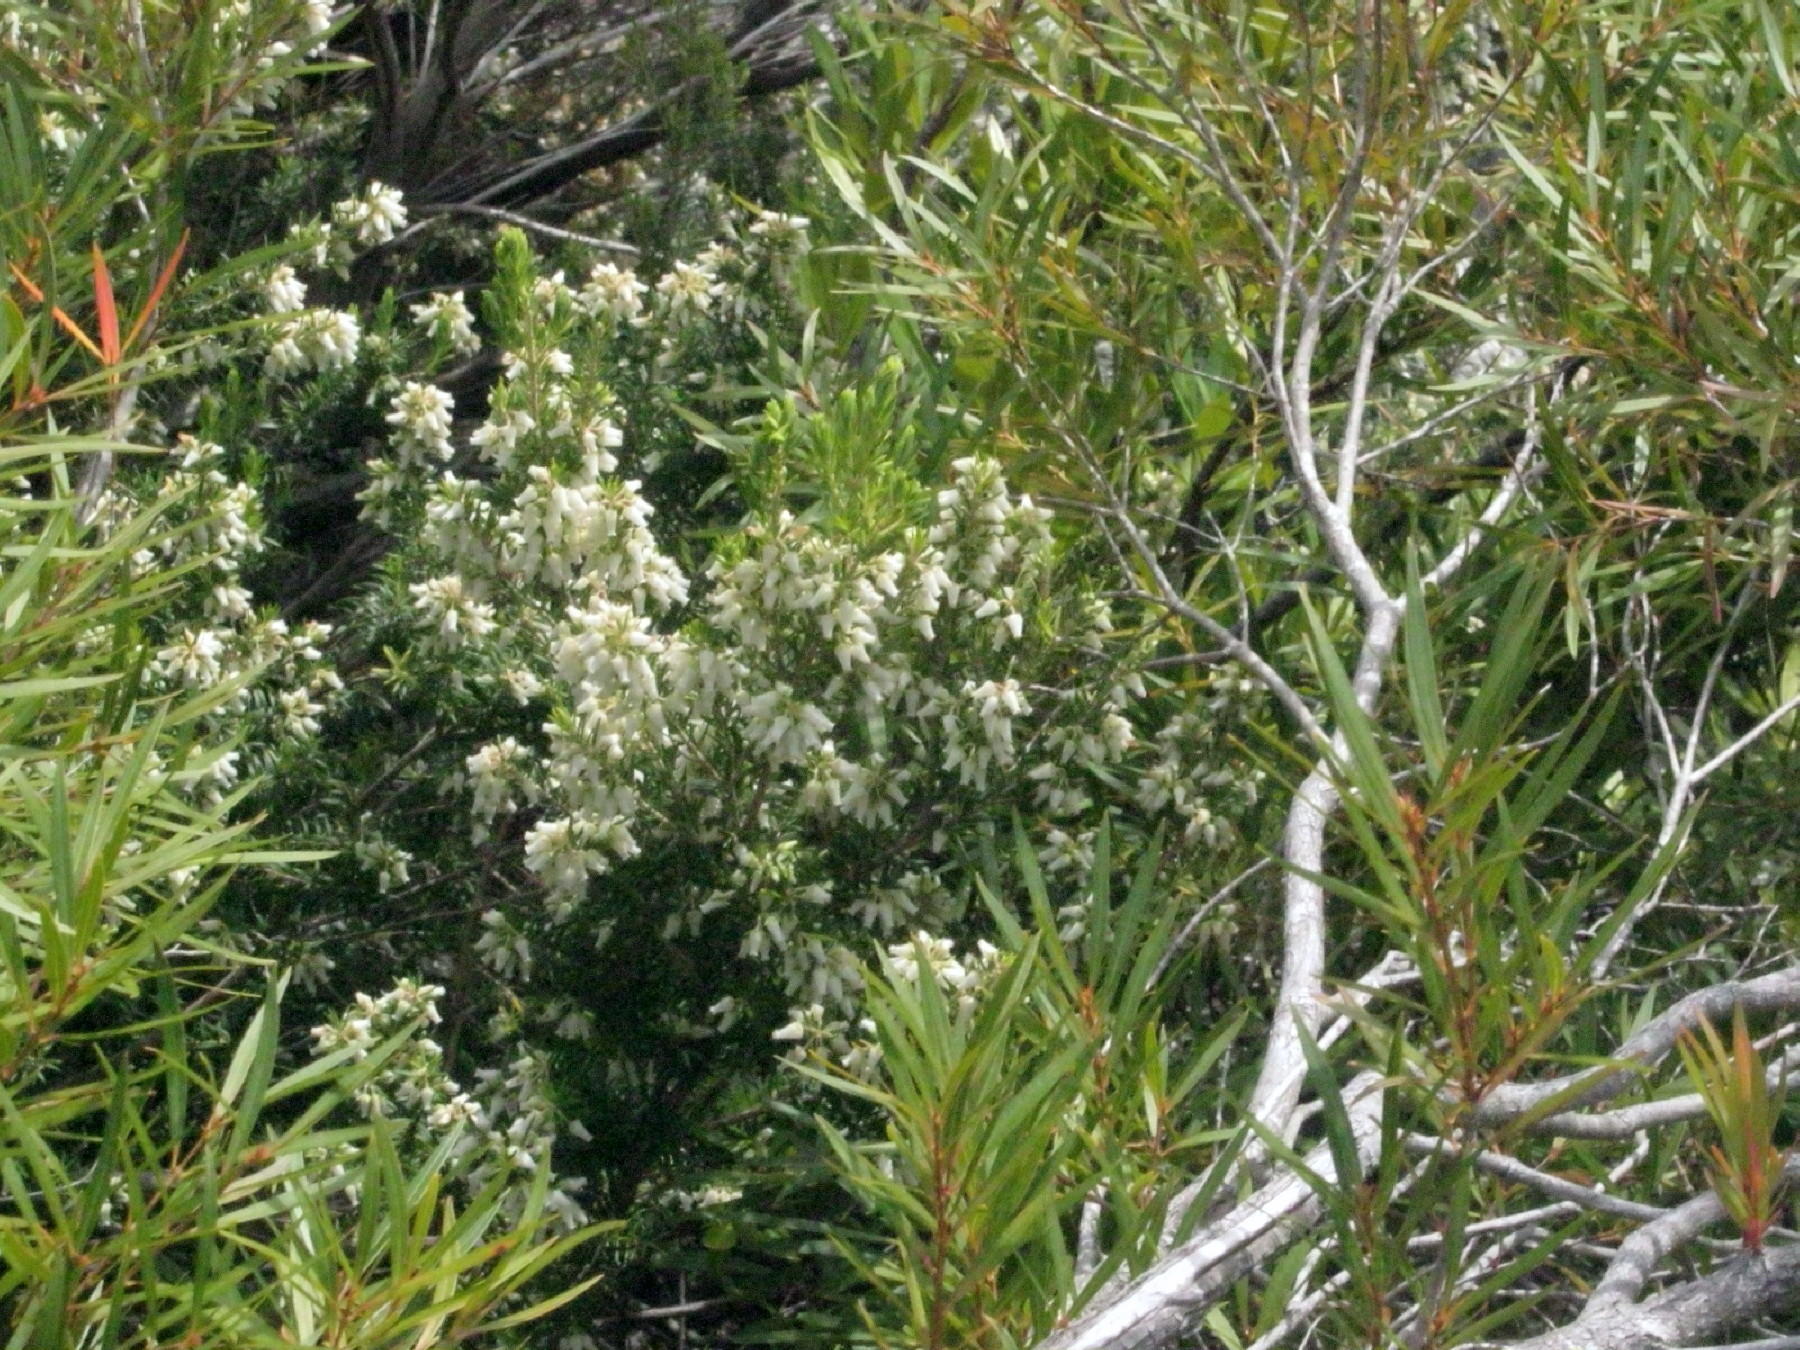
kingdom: Plantae
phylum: Tracheophyta
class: Magnoliopsida
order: Ericales
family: Ericaceae
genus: Erica
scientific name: Erica caffra
